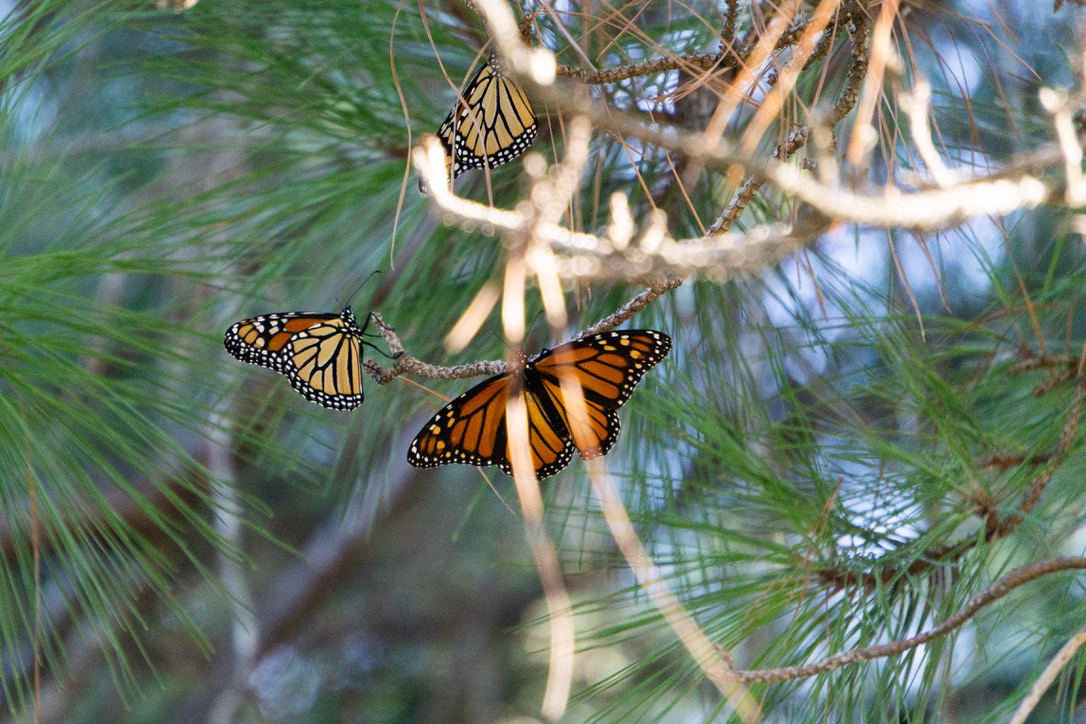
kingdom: Animalia
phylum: Arthropoda
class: Insecta
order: Lepidoptera
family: Nymphalidae
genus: Danaus
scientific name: Danaus plexippus
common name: Monarch
